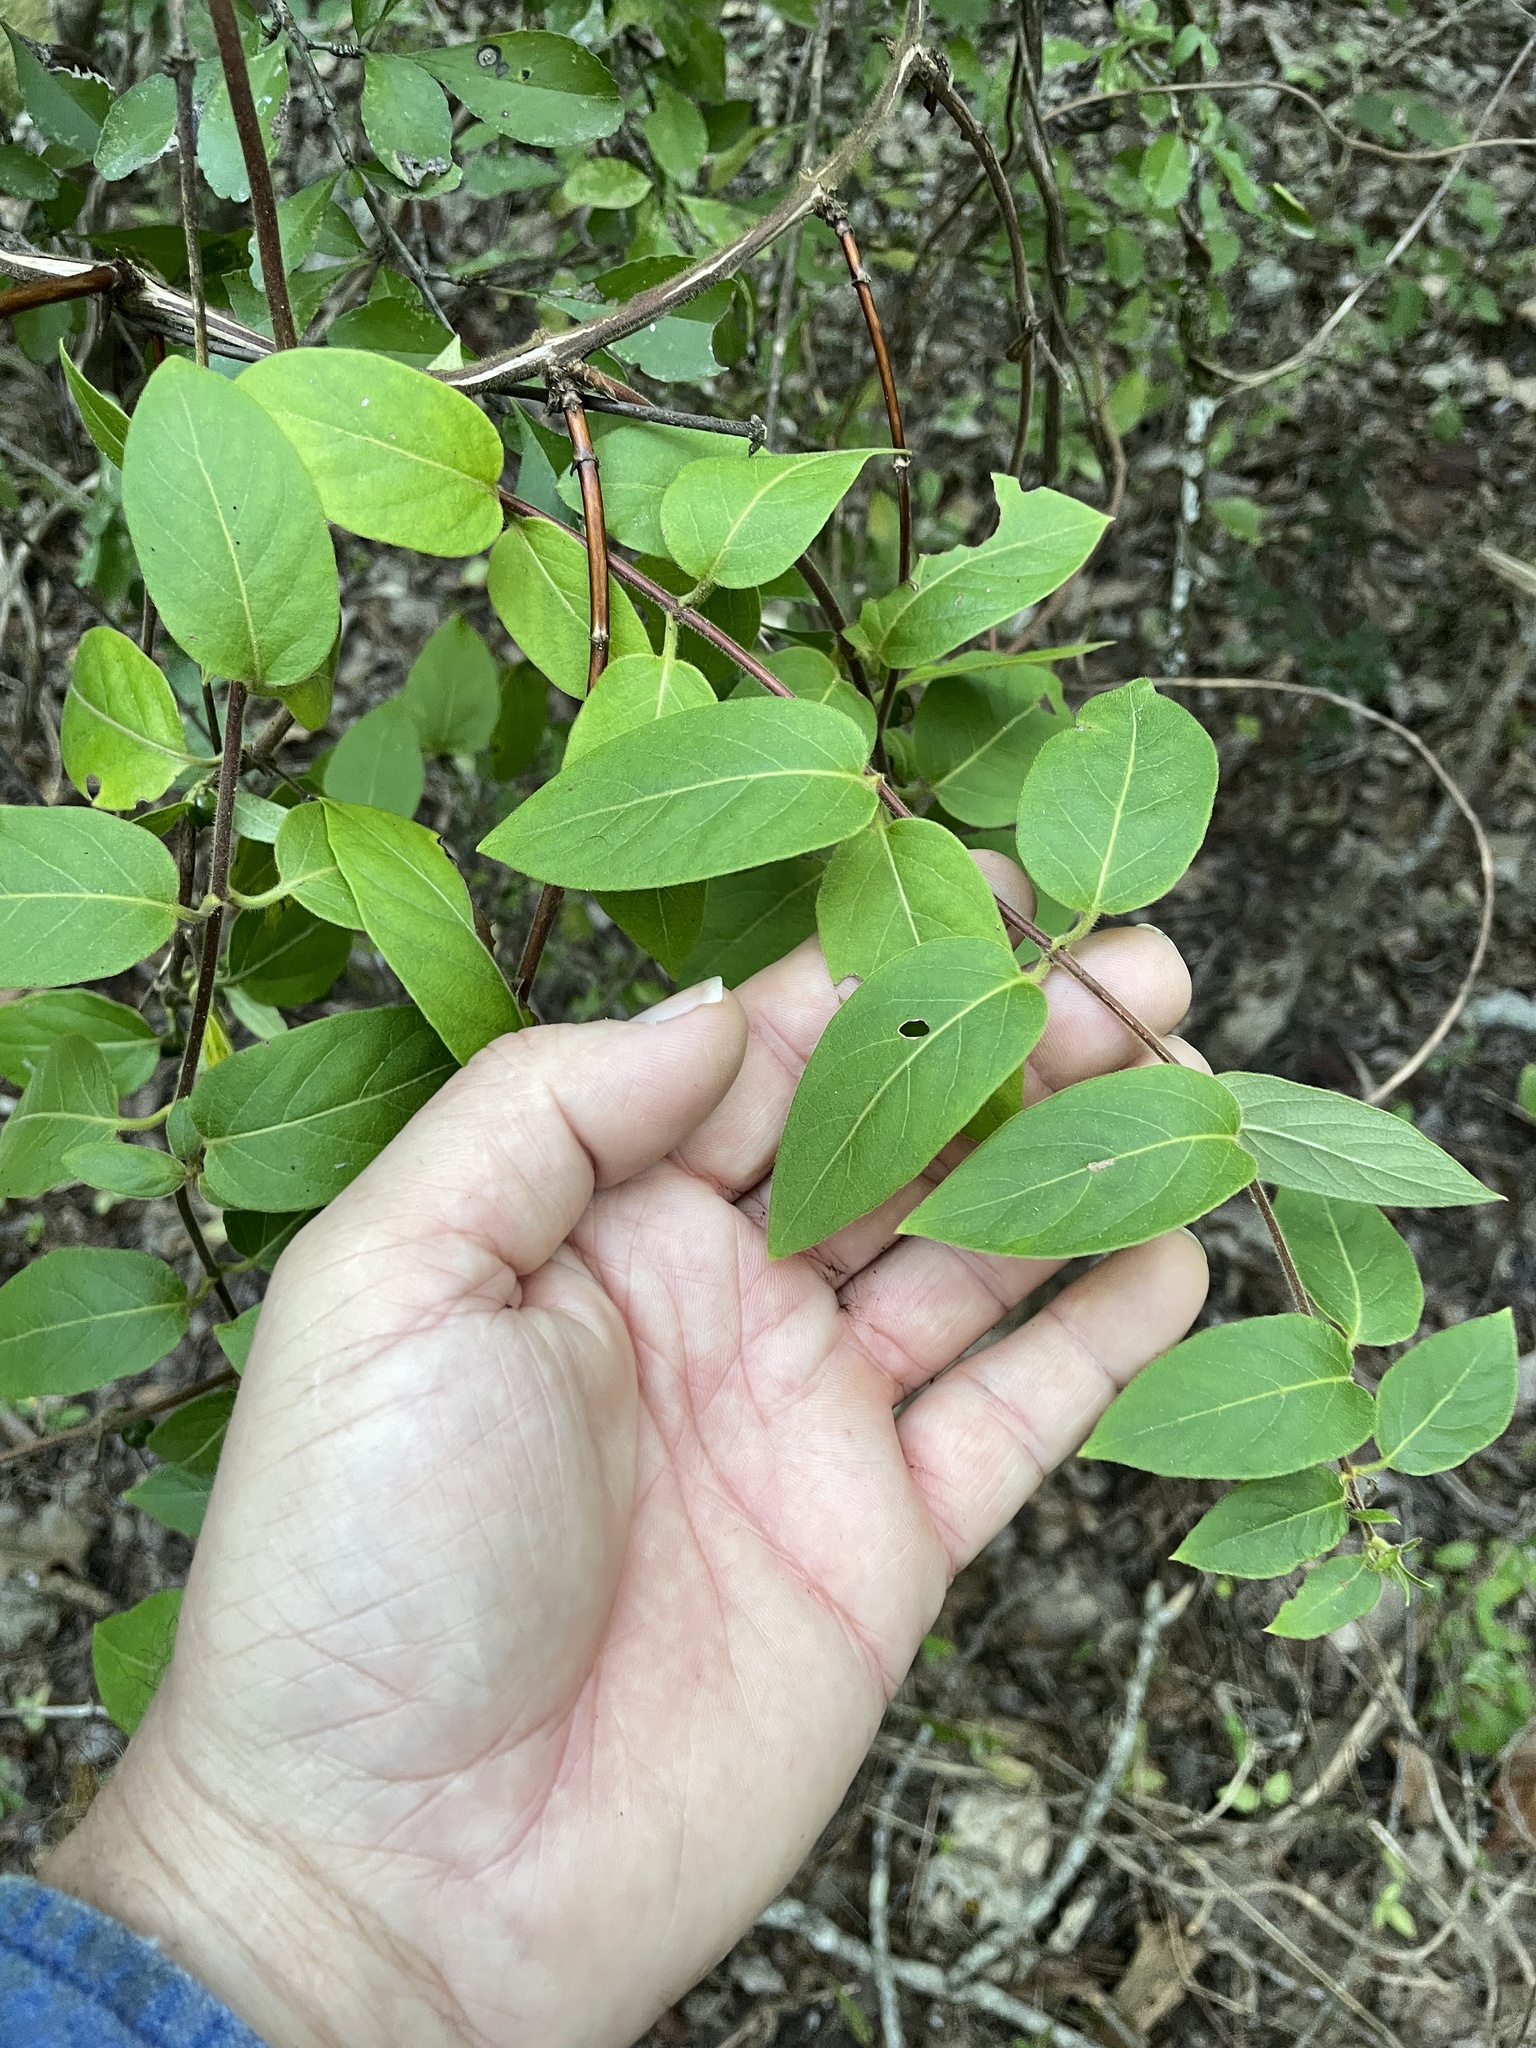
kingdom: Plantae
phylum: Tracheophyta
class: Magnoliopsida
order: Dipsacales
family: Caprifoliaceae
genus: Lonicera
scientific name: Lonicera japonica
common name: Japanese honeysuckle
